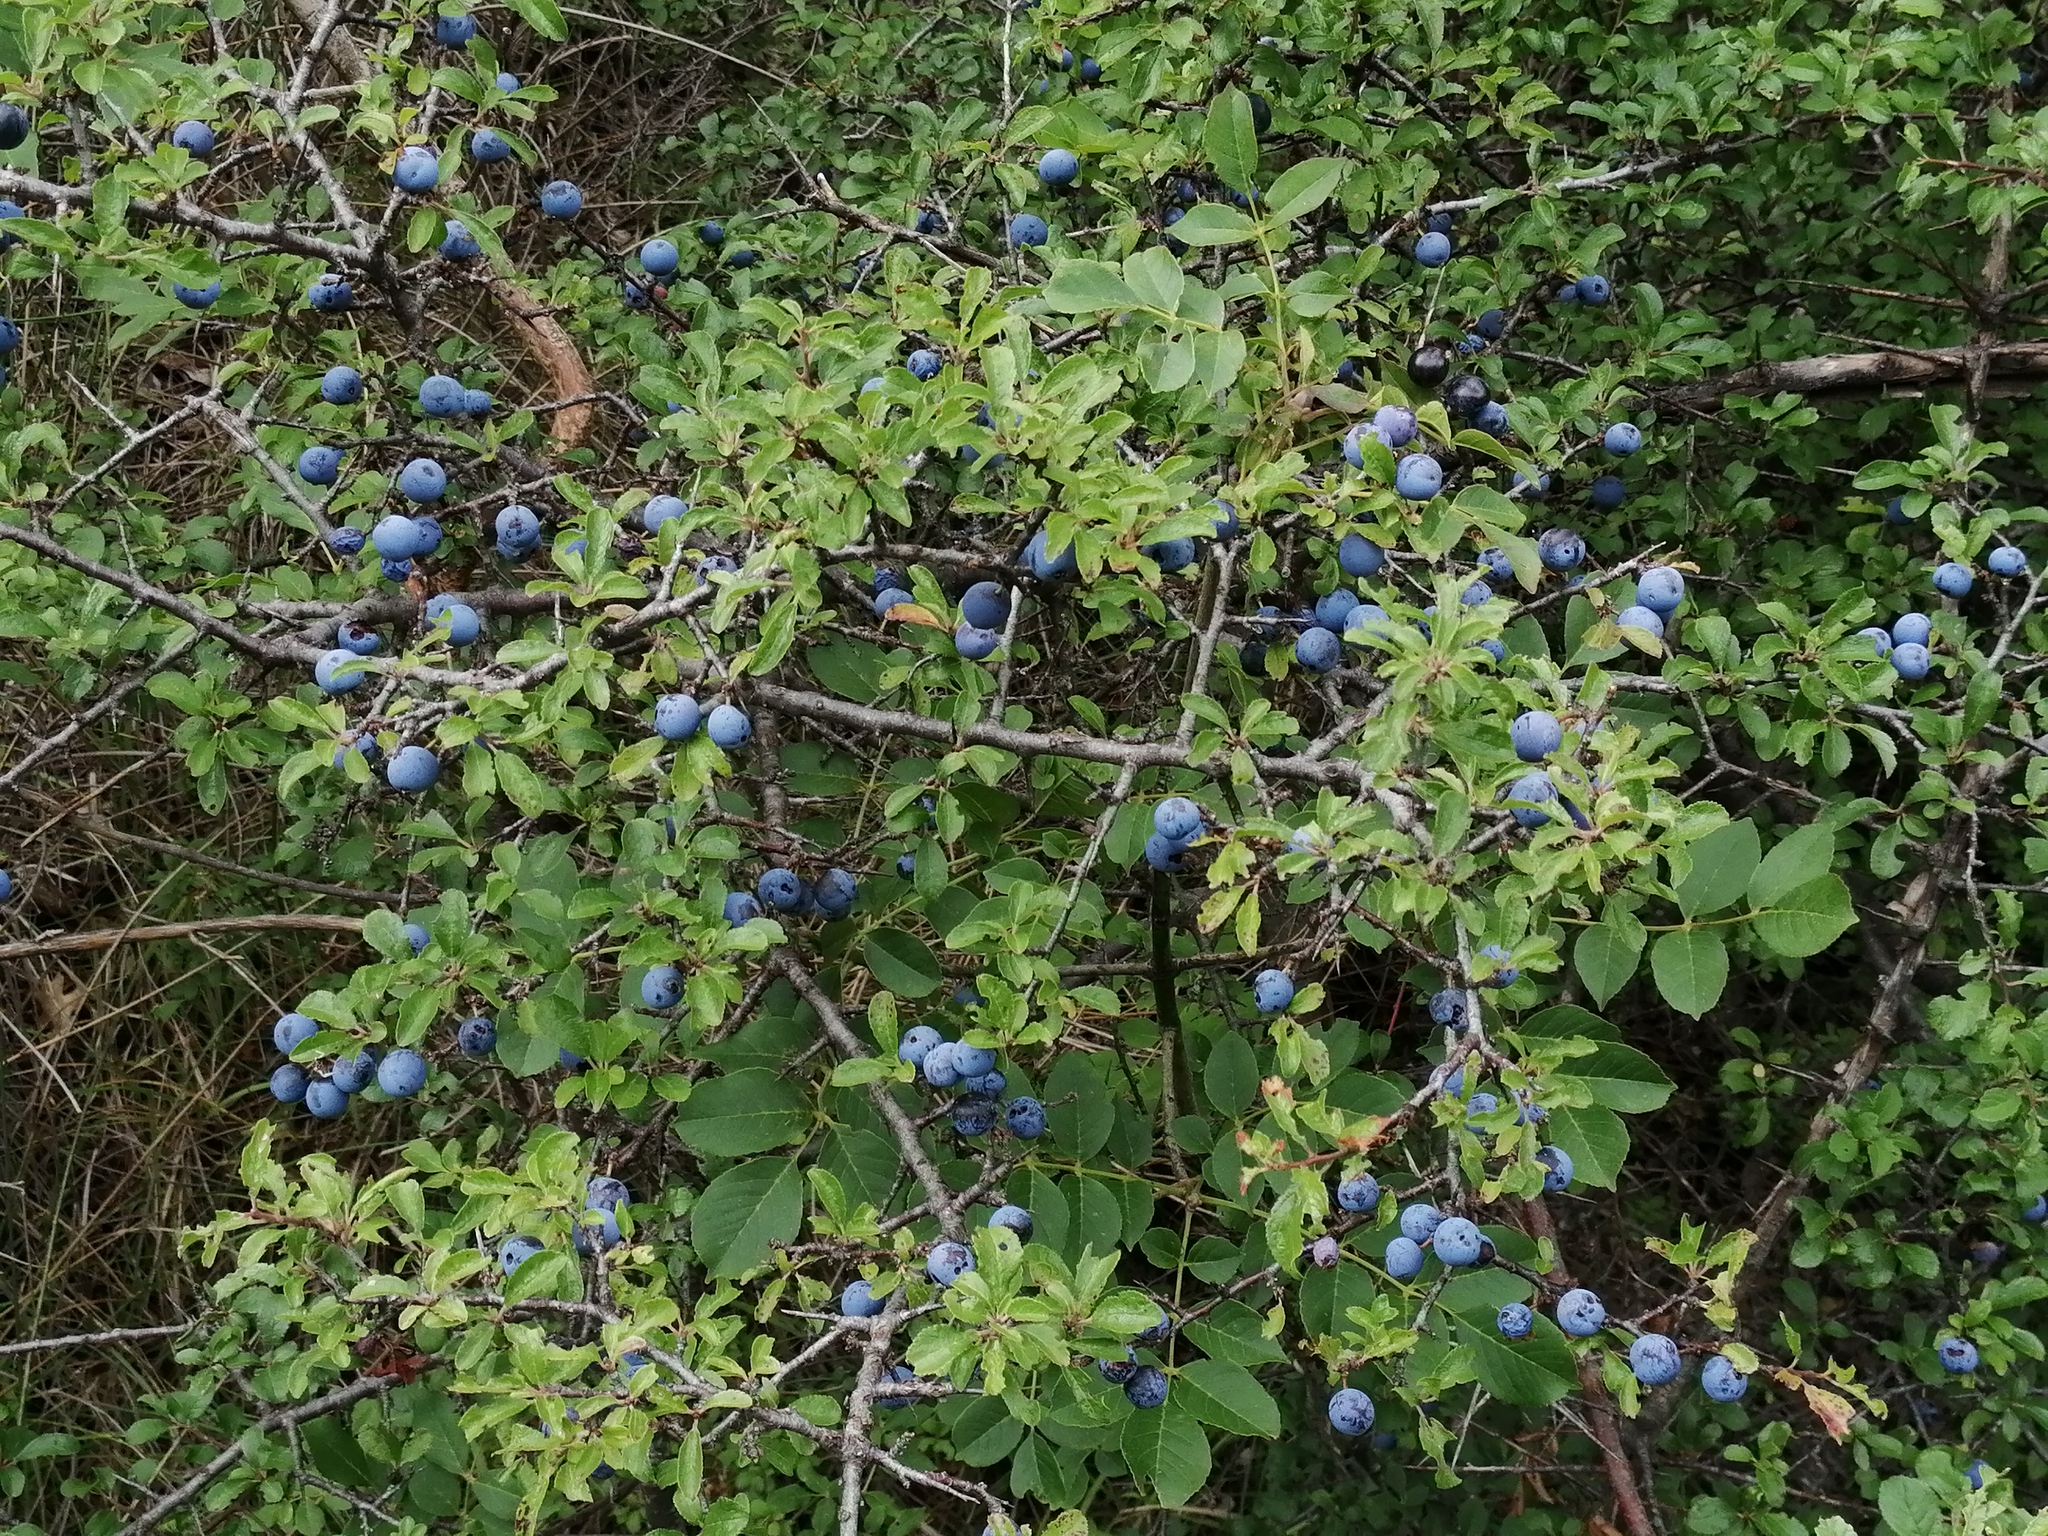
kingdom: Plantae
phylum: Tracheophyta
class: Magnoliopsida
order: Rosales
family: Rosaceae
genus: Prunus
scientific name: Prunus spinosa
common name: Blackthorn
